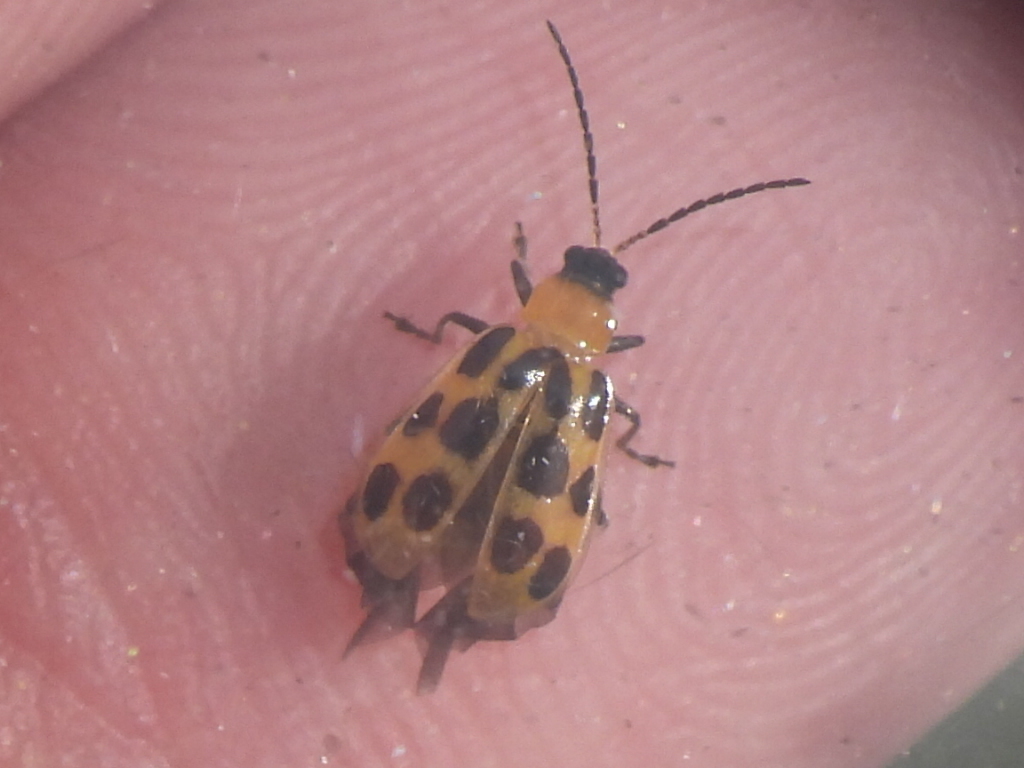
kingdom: Animalia
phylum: Arthropoda
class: Insecta
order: Coleoptera
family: Chrysomelidae
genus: Diabrotica
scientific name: Diabrotica undecimpunctata
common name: Spotted cucumber beetle
